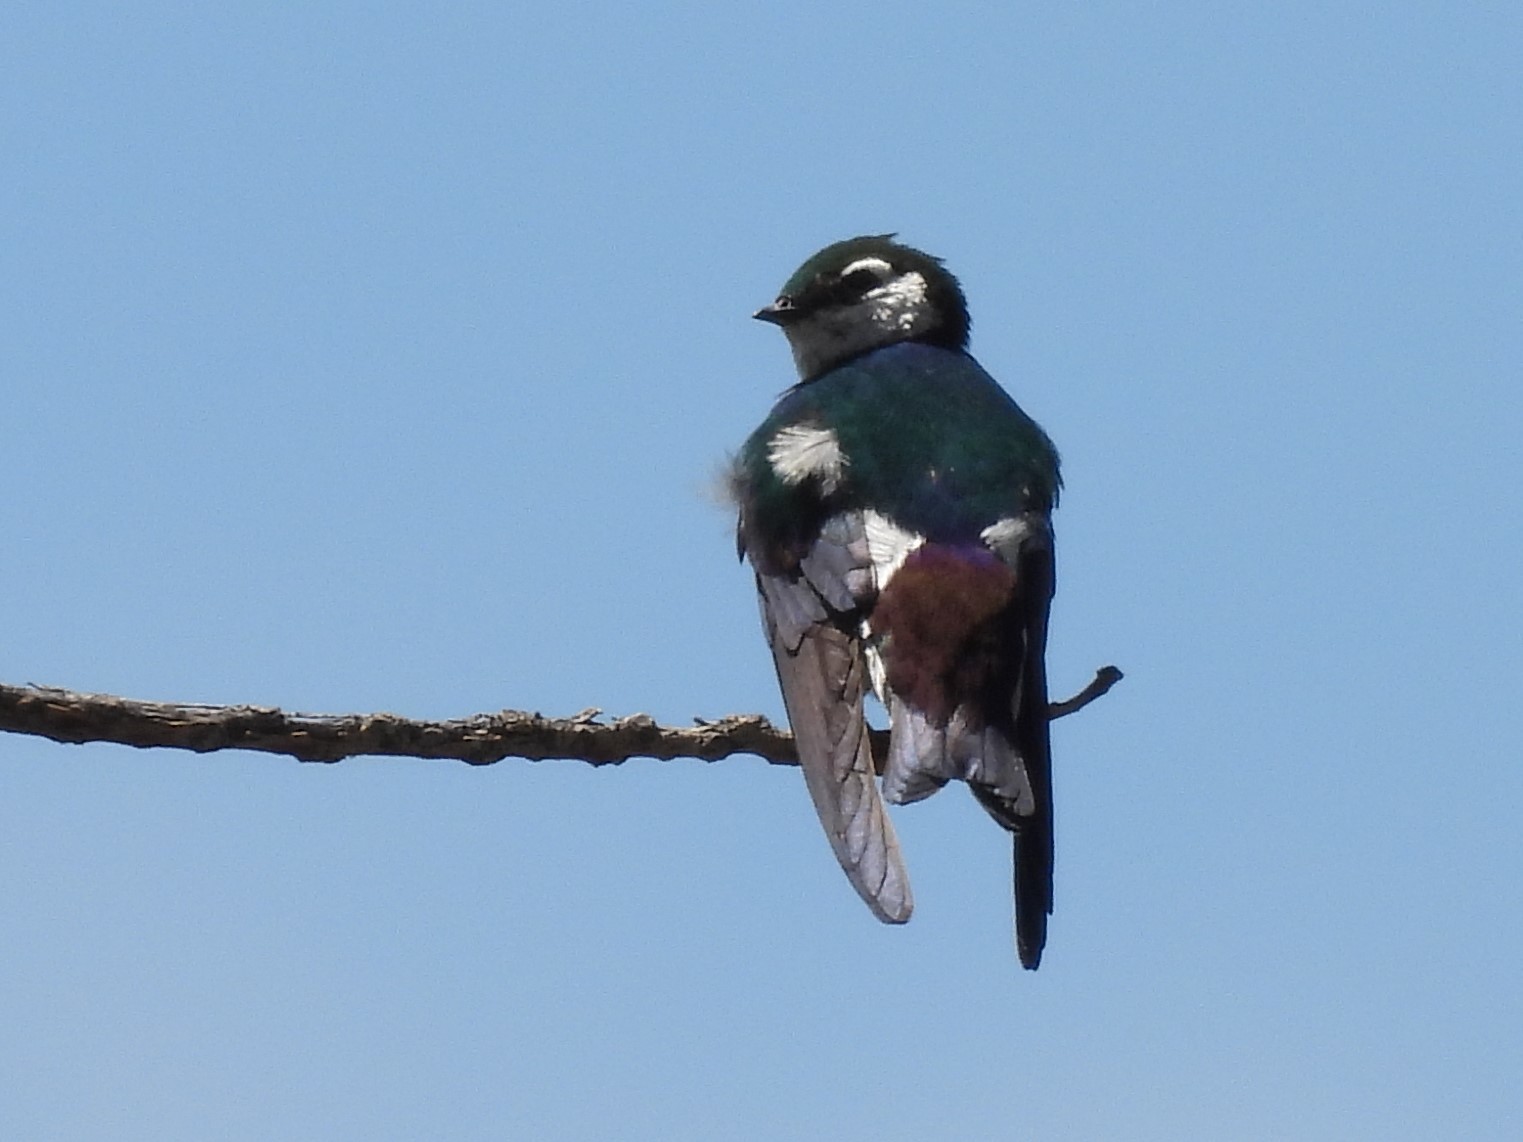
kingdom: Animalia
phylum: Chordata
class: Aves
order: Passeriformes
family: Hirundinidae
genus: Tachycineta
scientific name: Tachycineta thalassina
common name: Violet-green swallow
